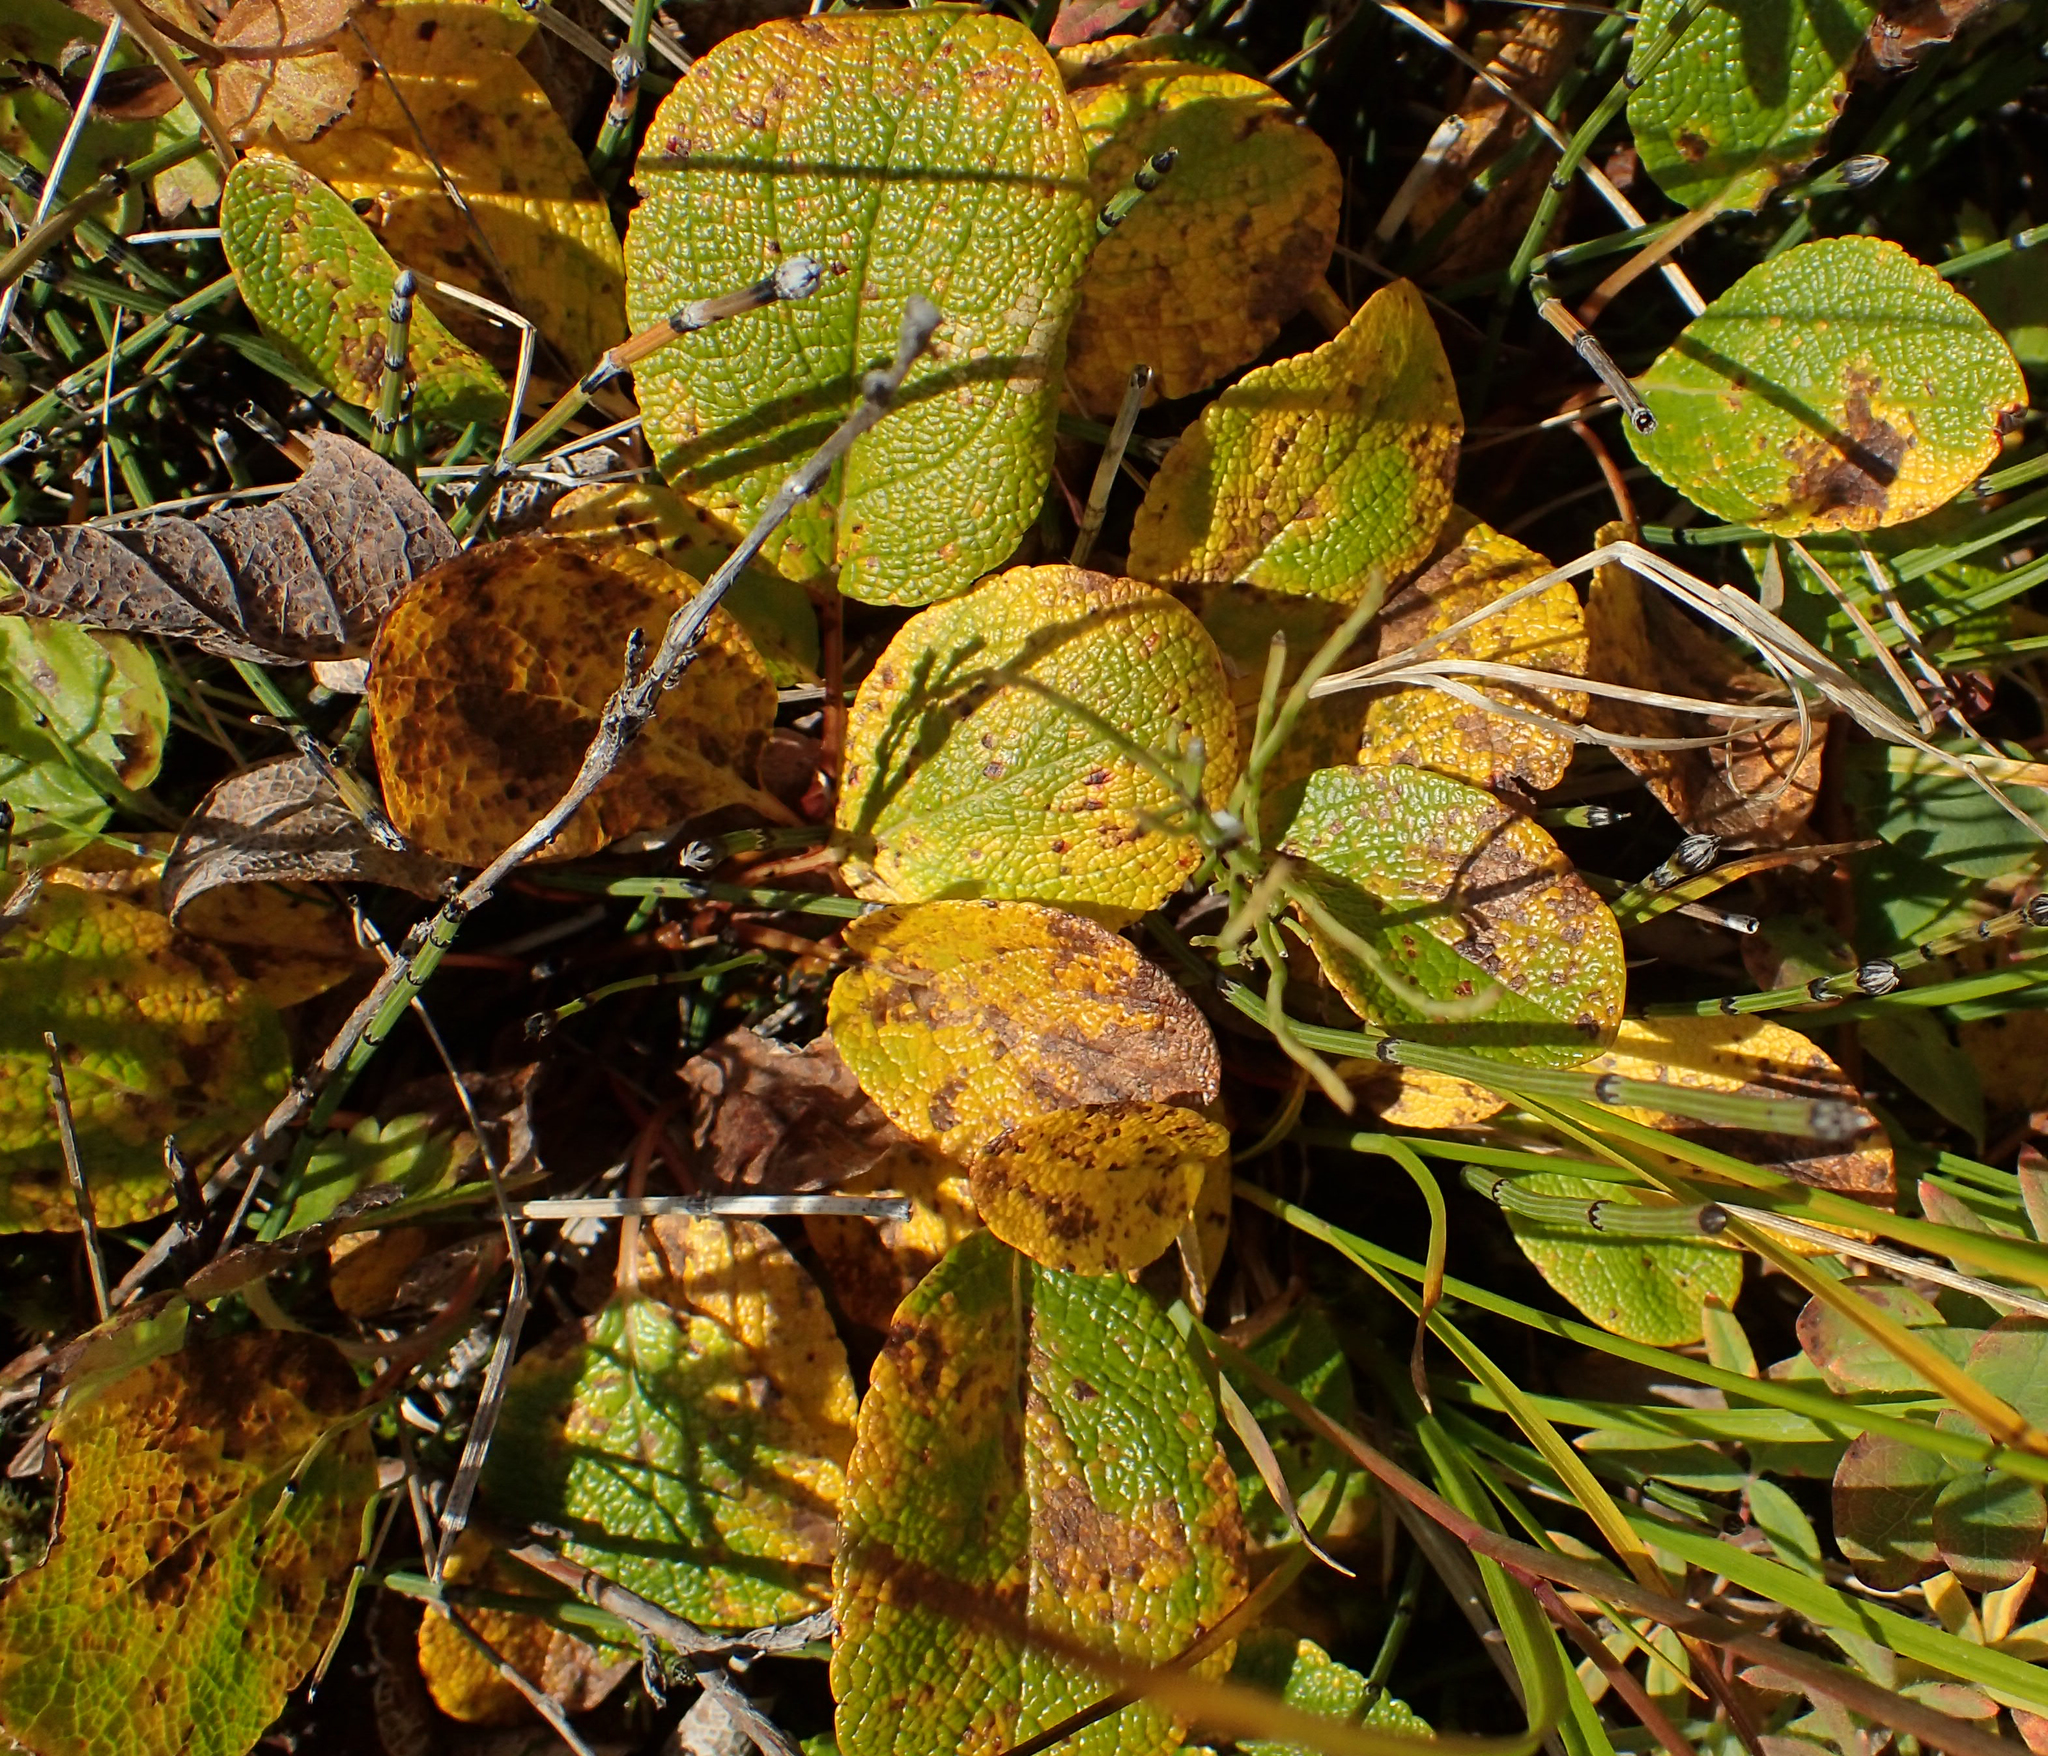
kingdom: Plantae
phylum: Tracheophyta
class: Magnoliopsida
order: Malpighiales
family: Salicaceae
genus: Salix
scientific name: Salix reticulata
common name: Net-leaved willow
